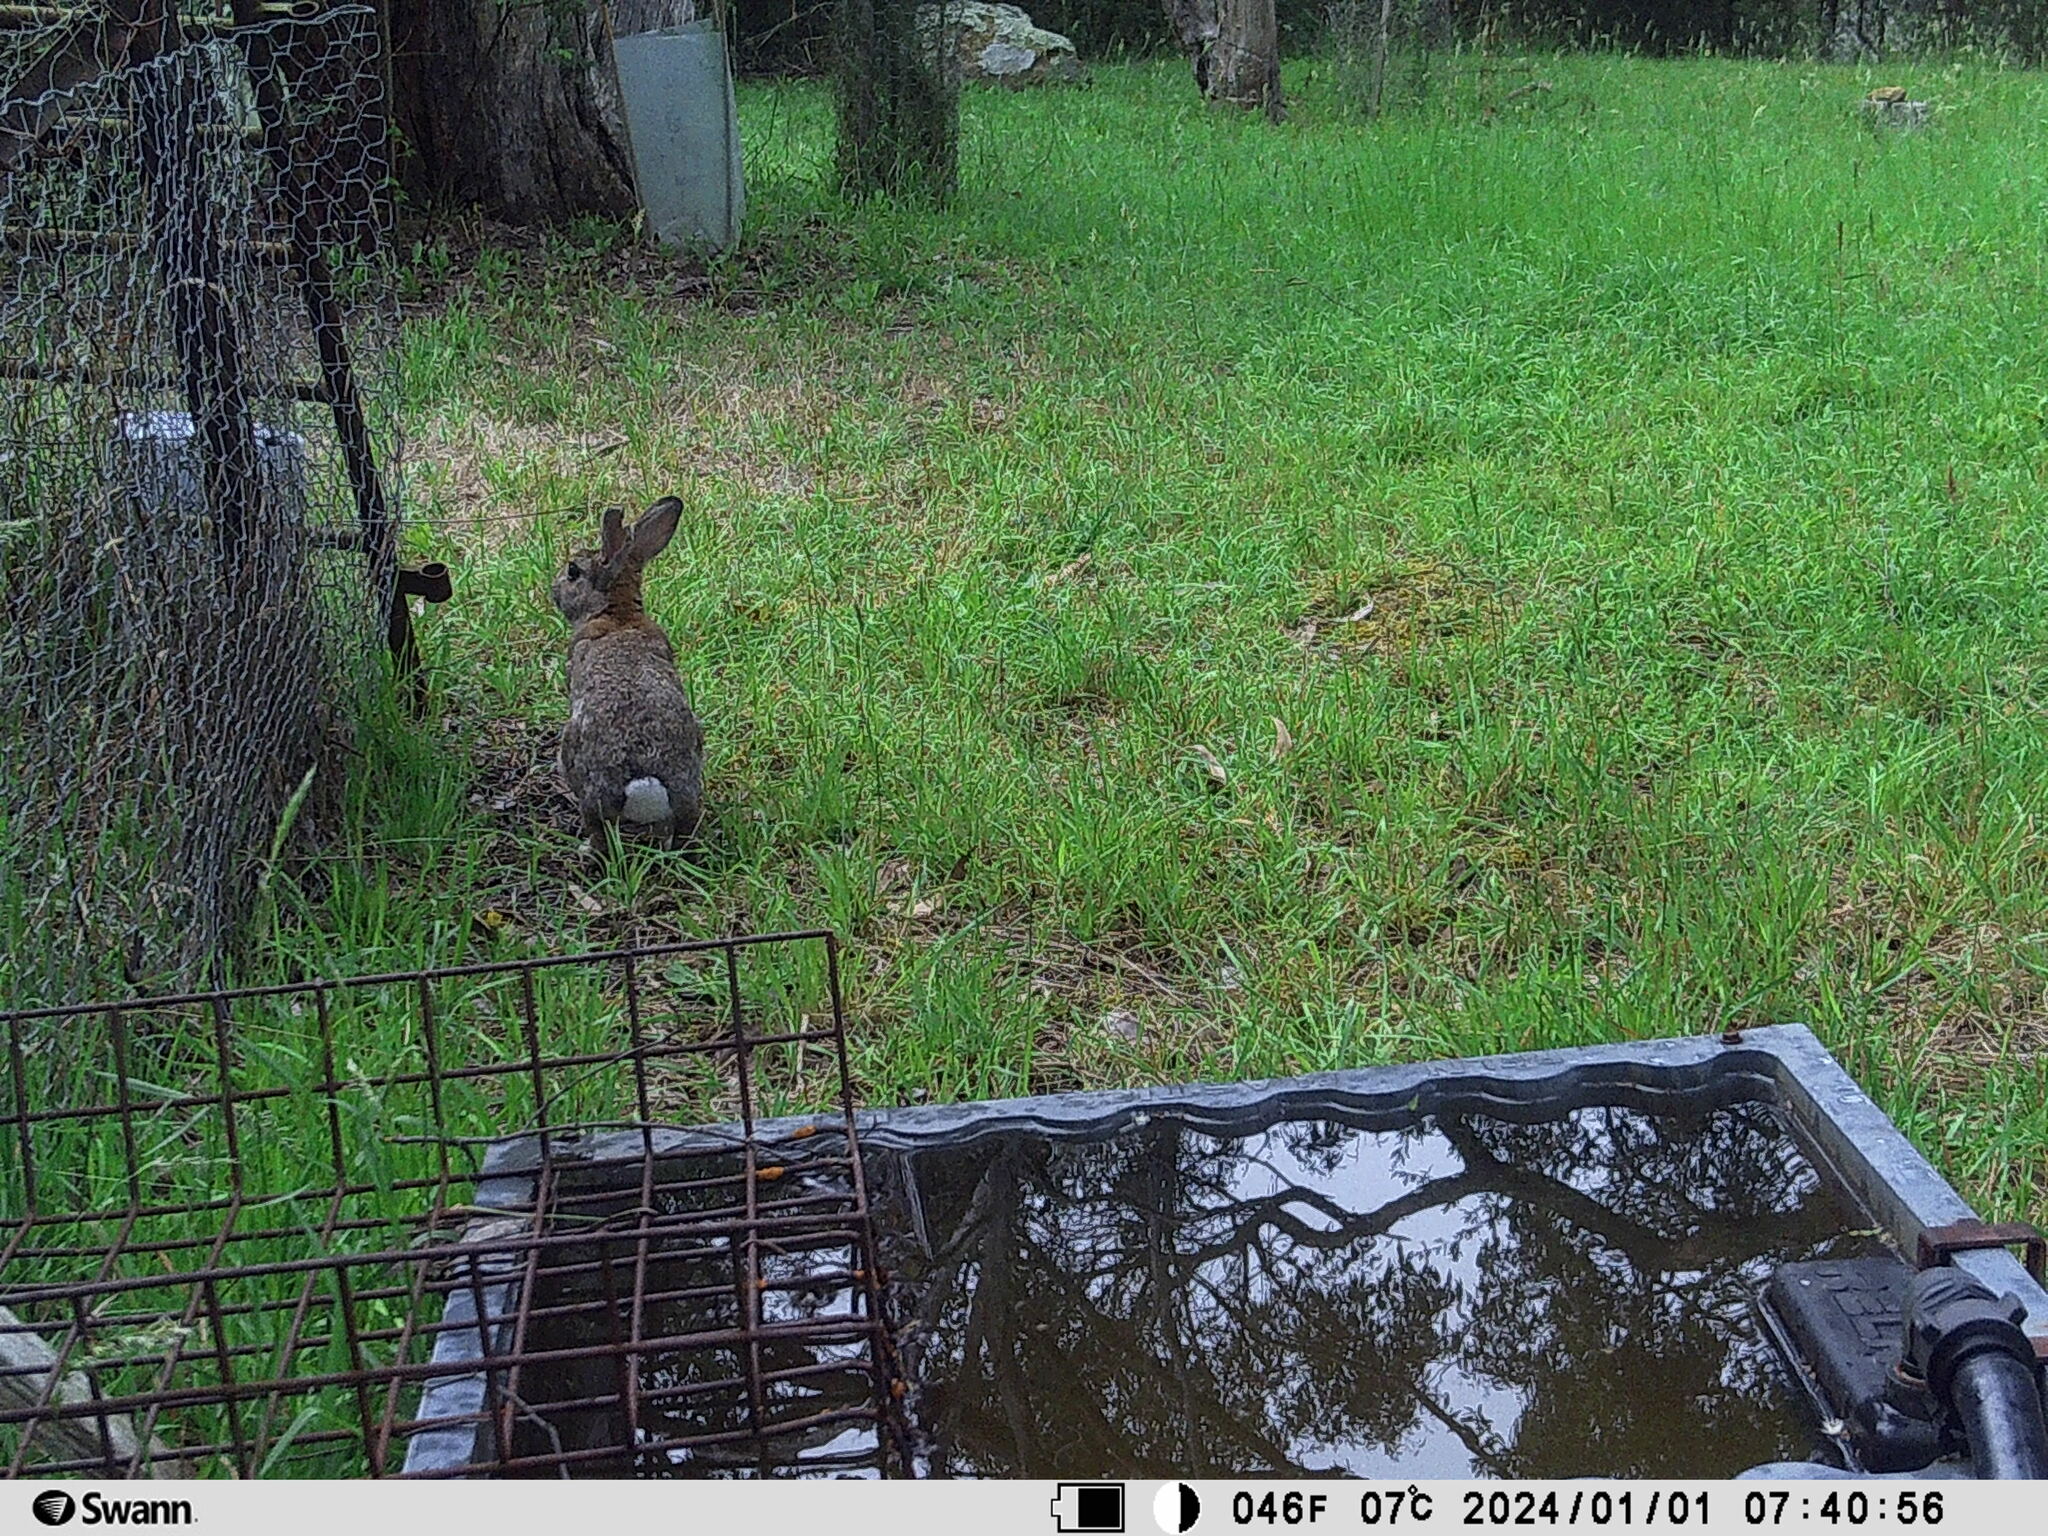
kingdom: Animalia
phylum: Chordata
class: Mammalia
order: Lagomorpha
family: Leporidae
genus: Oryctolagus
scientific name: Oryctolagus cuniculus
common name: European rabbit
